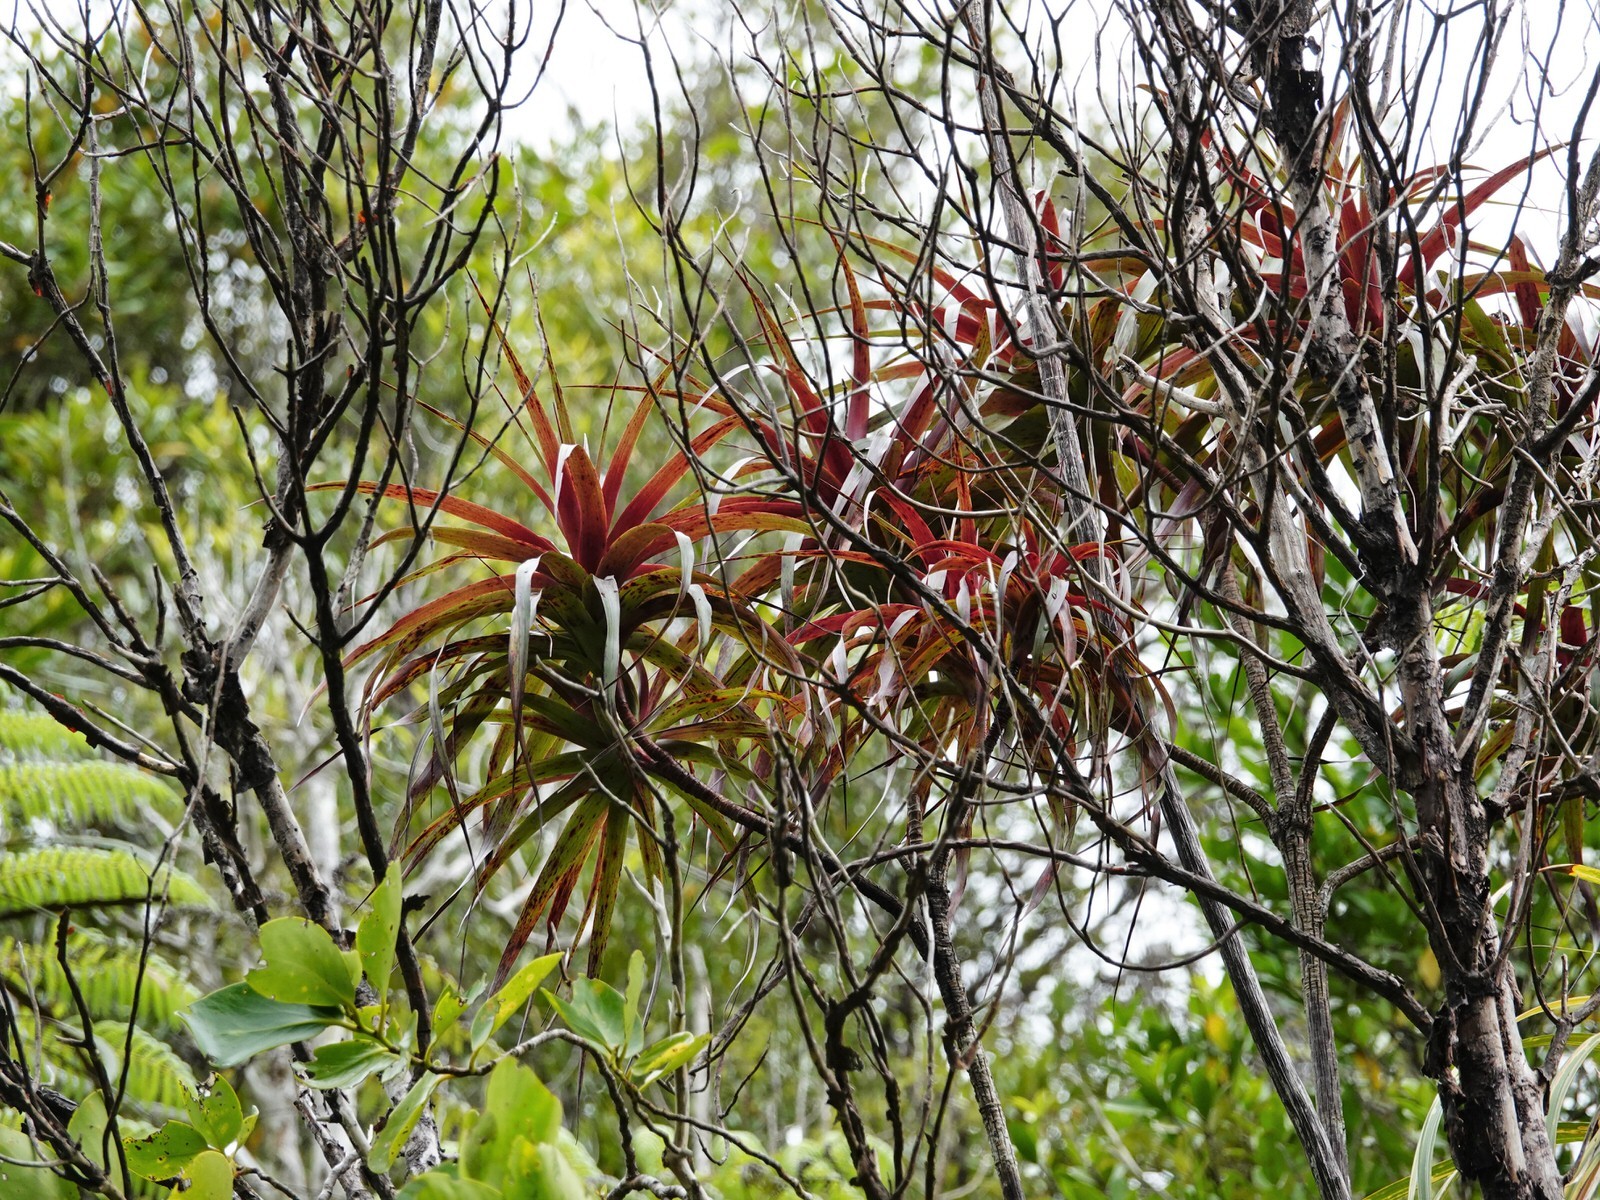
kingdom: Plantae
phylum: Tracheophyta
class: Magnoliopsida
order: Ericales
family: Ericaceae
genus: Dracophyllum
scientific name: Dracophyllum latifolium
